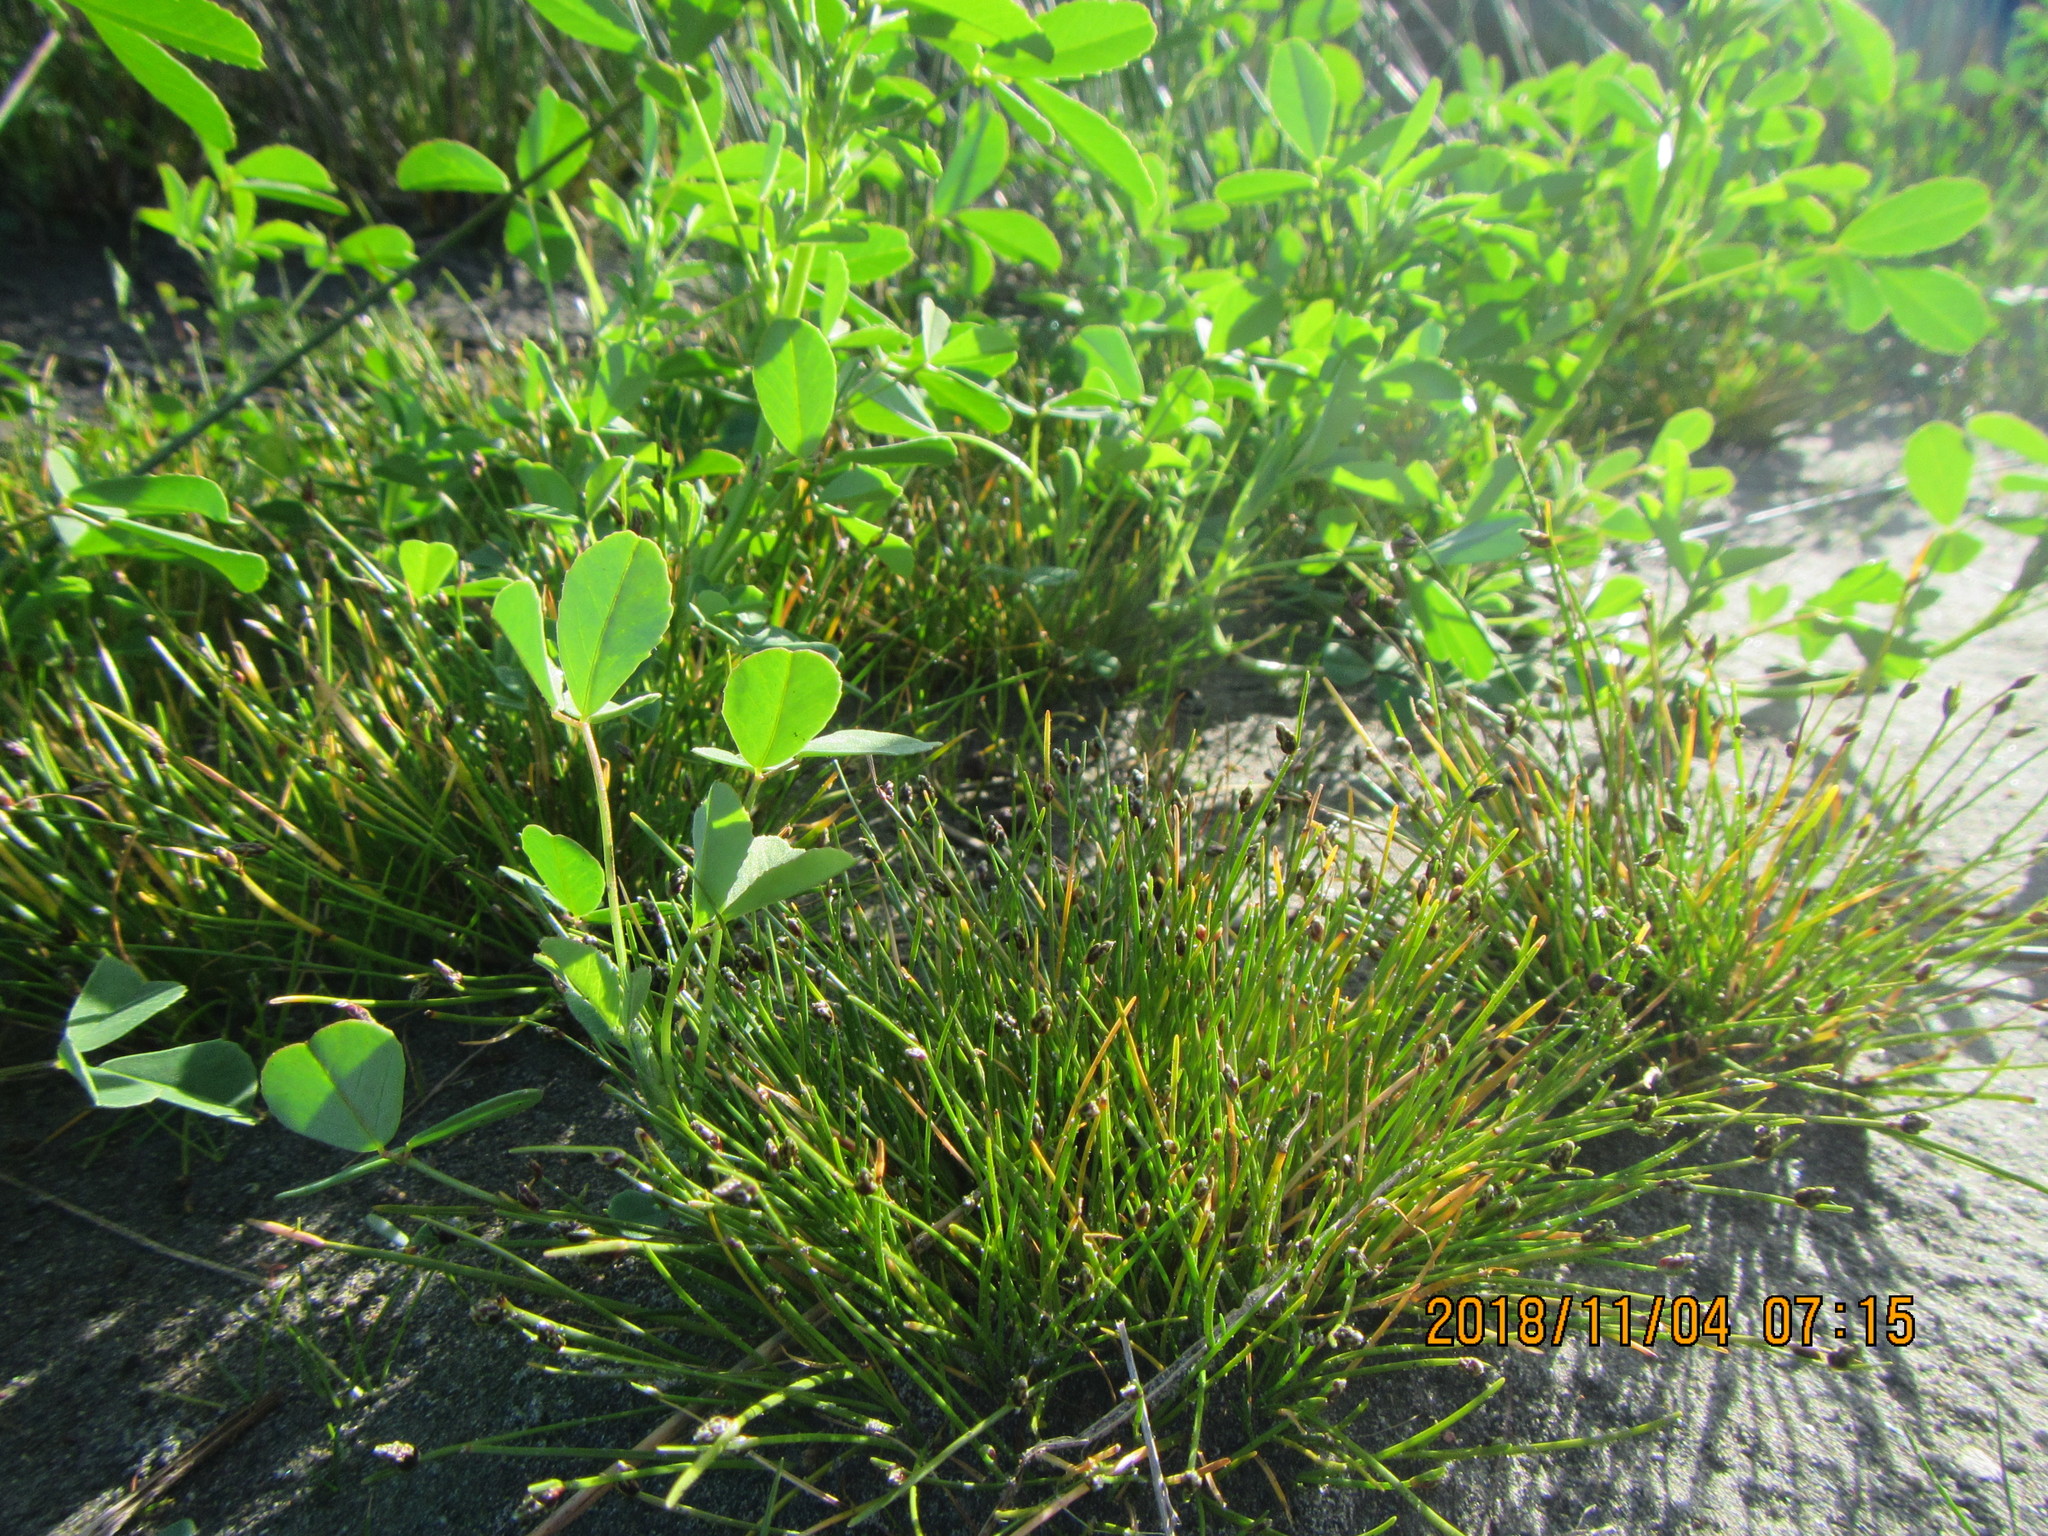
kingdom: Plantae
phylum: Tracheophyta
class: Liliopsida
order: Poales
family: Cyperaceae
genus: Isolepis
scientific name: Isolepis cernua
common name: Slender club-rush
